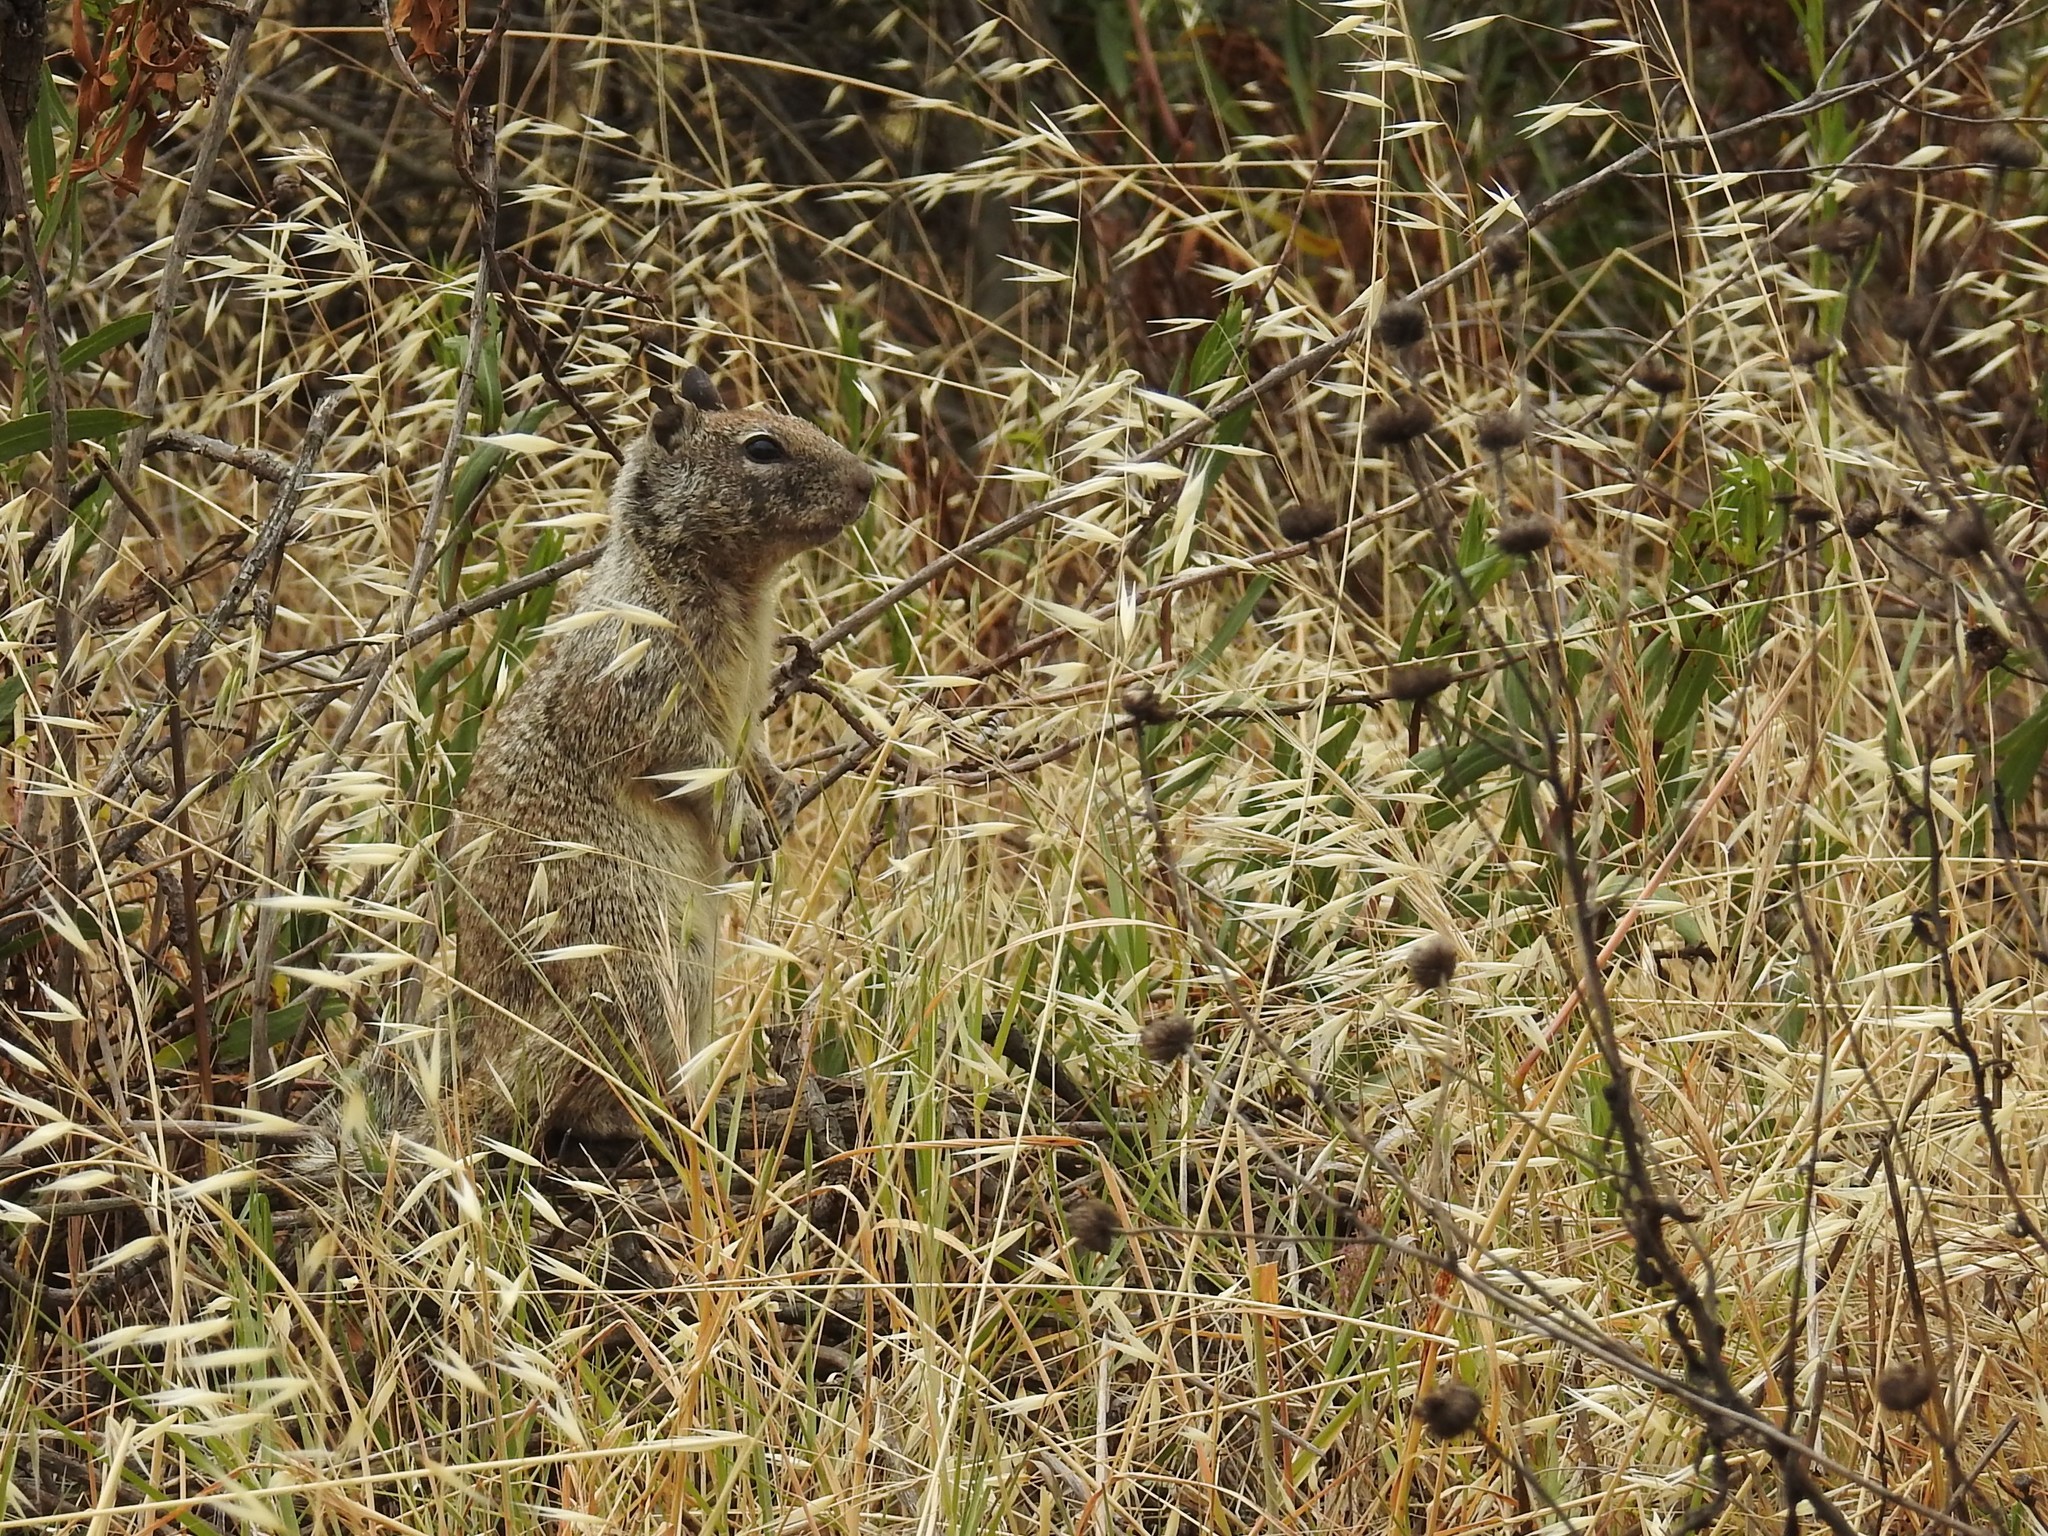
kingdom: Animalia
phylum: Chordata
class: Mammalia
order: Rodentia
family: Sciuridae
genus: Otospermophilus
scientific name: Otospermophilus beecheyi
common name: California ground squirrel
